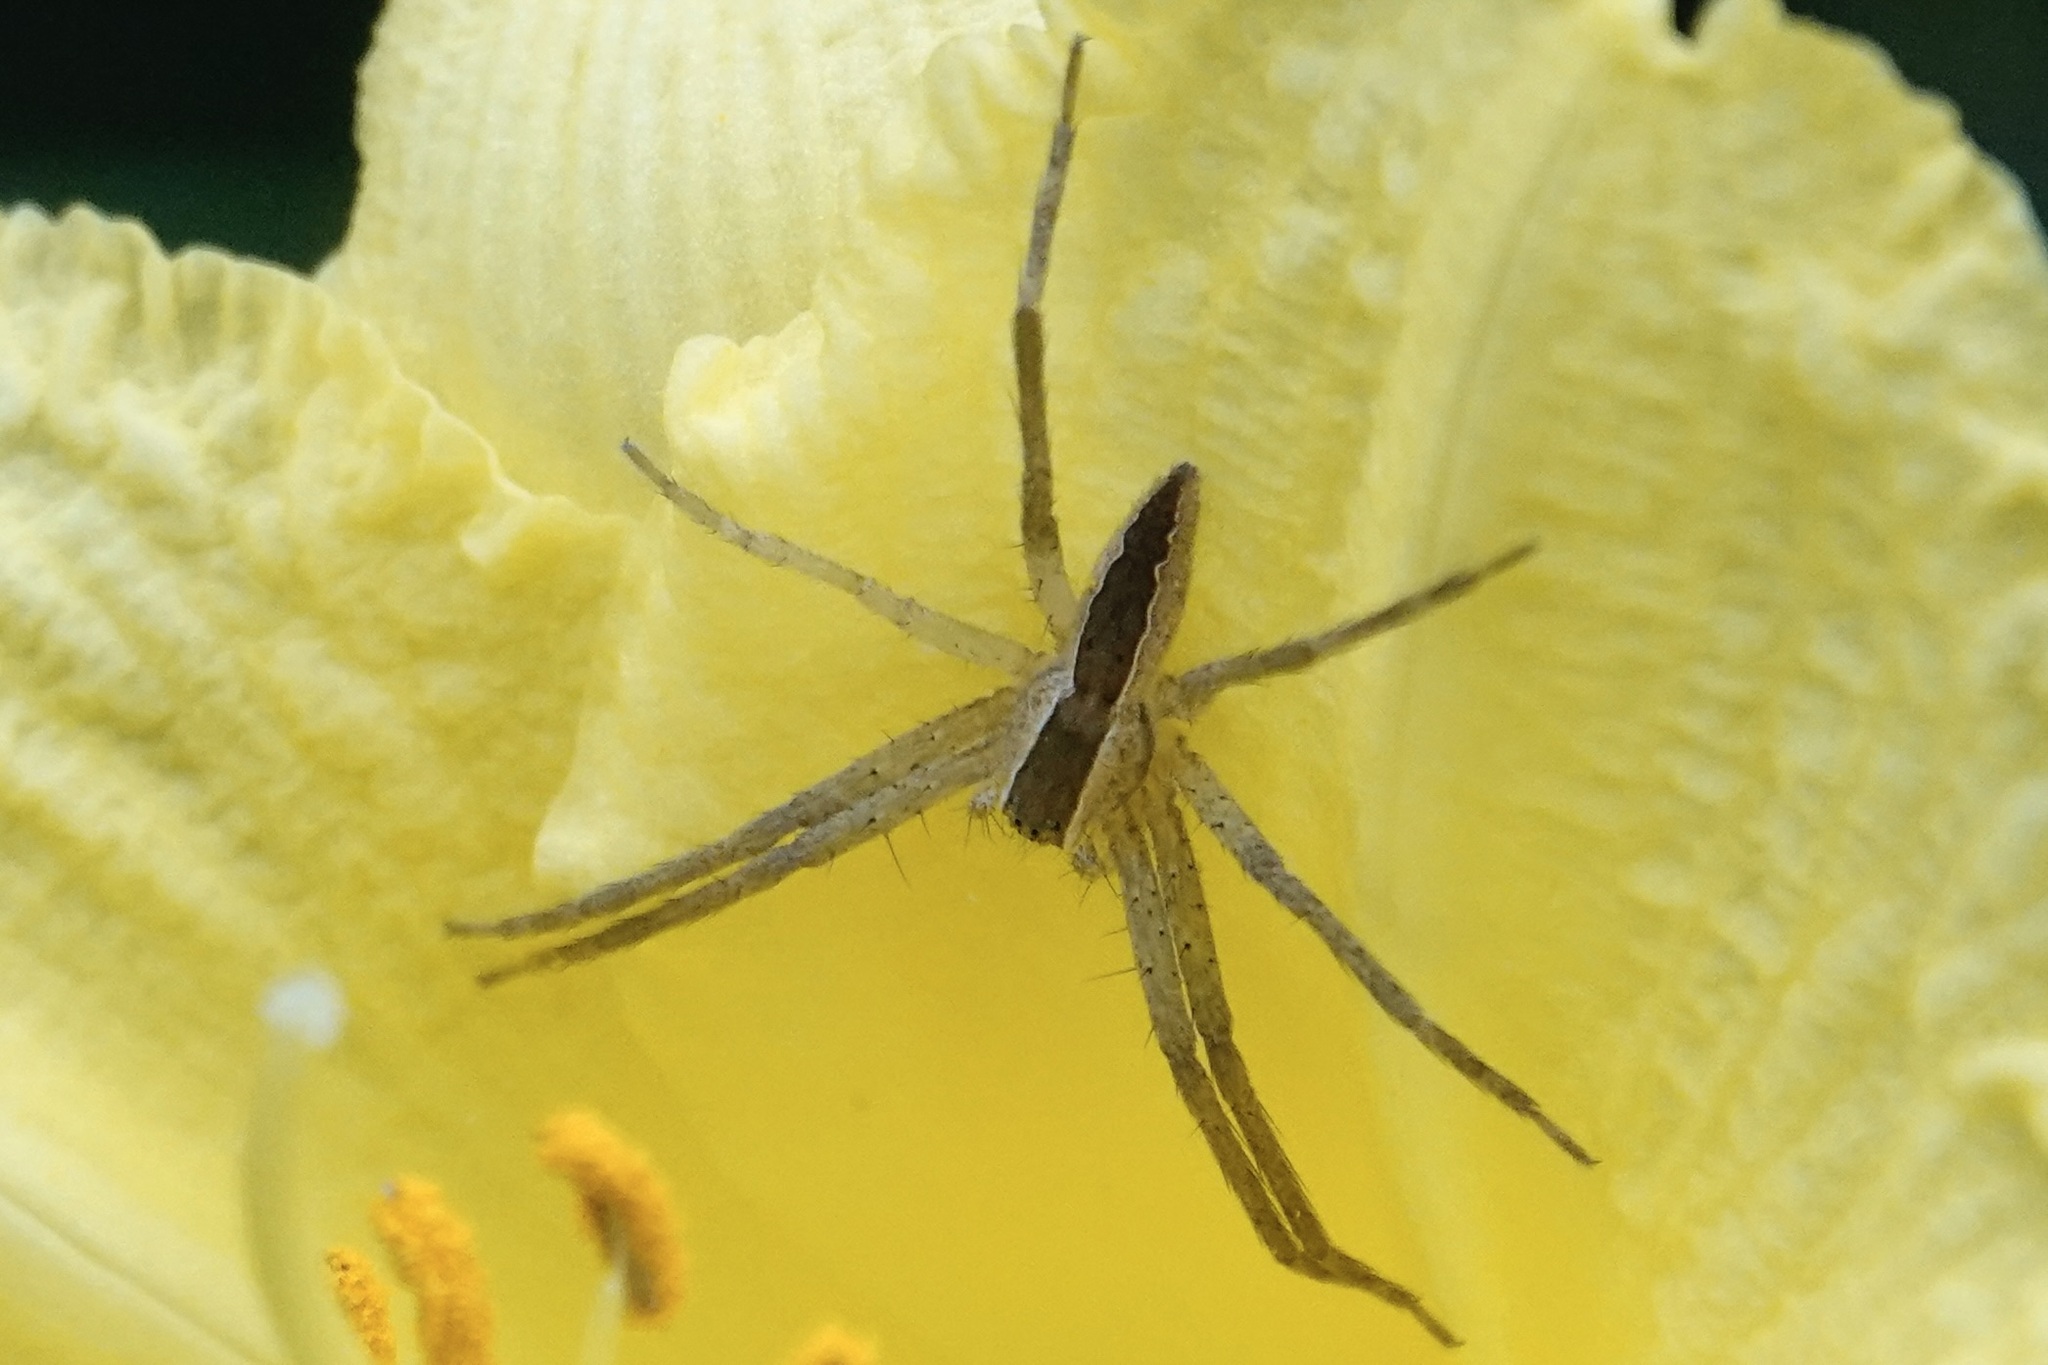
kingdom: Animalia
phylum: Arthropoda
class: Arachnida
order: Araneae
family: Pisauridae
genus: Pisaurina
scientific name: Pisaurina mira
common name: American nursery web spider
